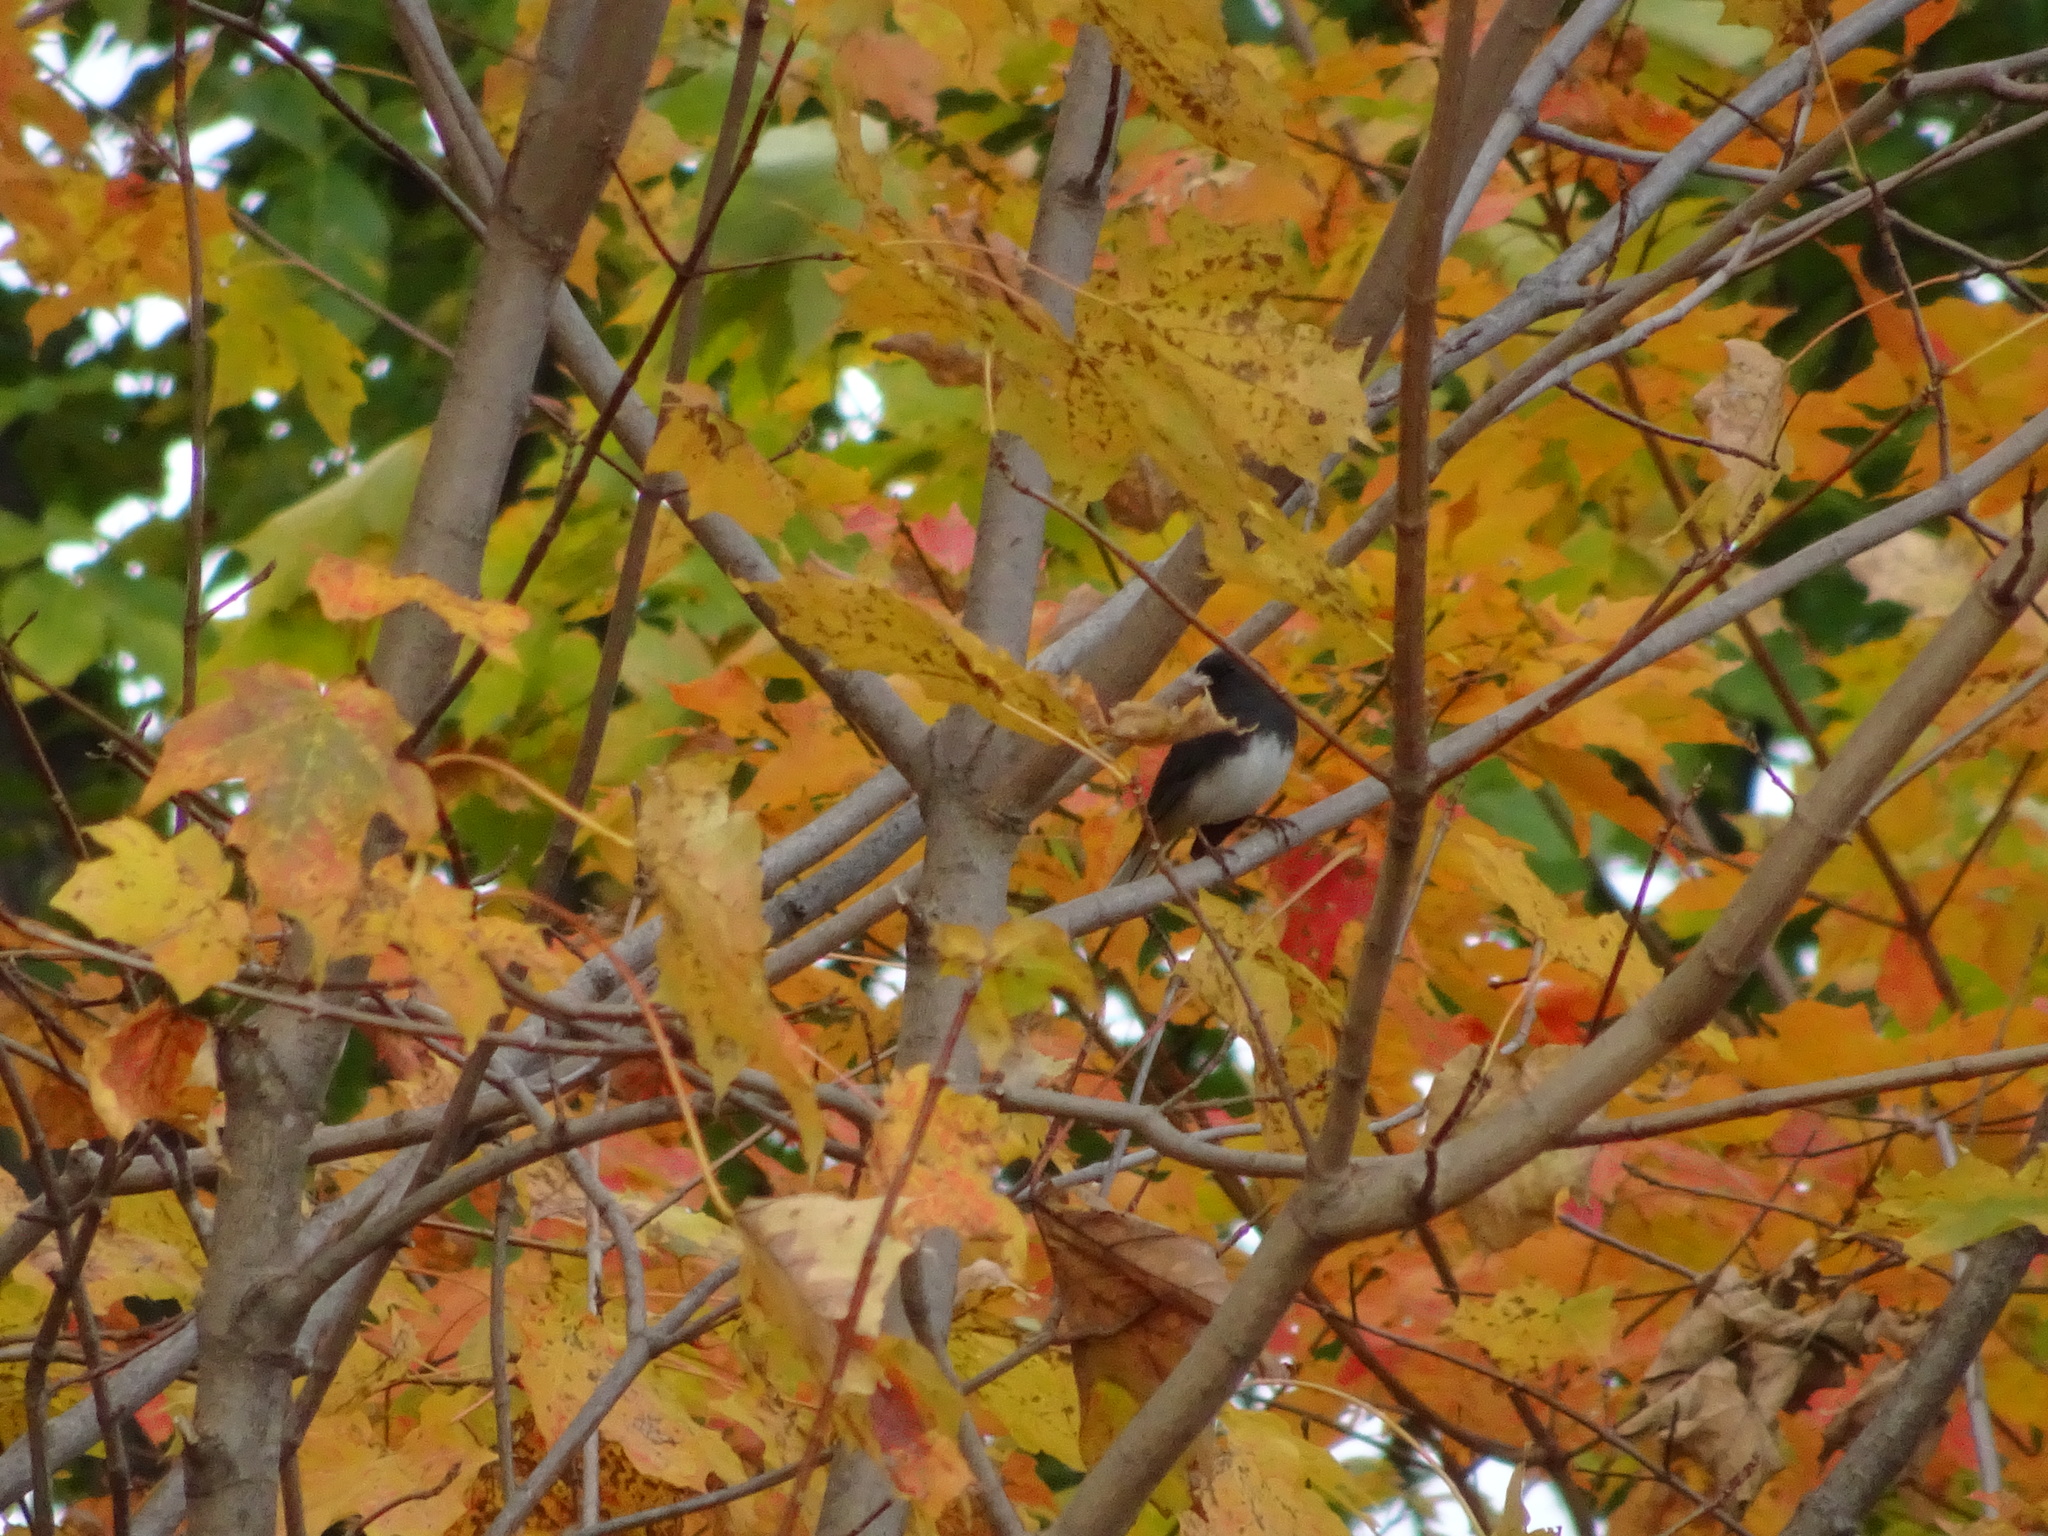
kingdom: Animalia
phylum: Chordata
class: Aves
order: Passeriformes
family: Passerellidae
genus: Junco
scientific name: Junco hyemalis
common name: Dark-eyed junco
